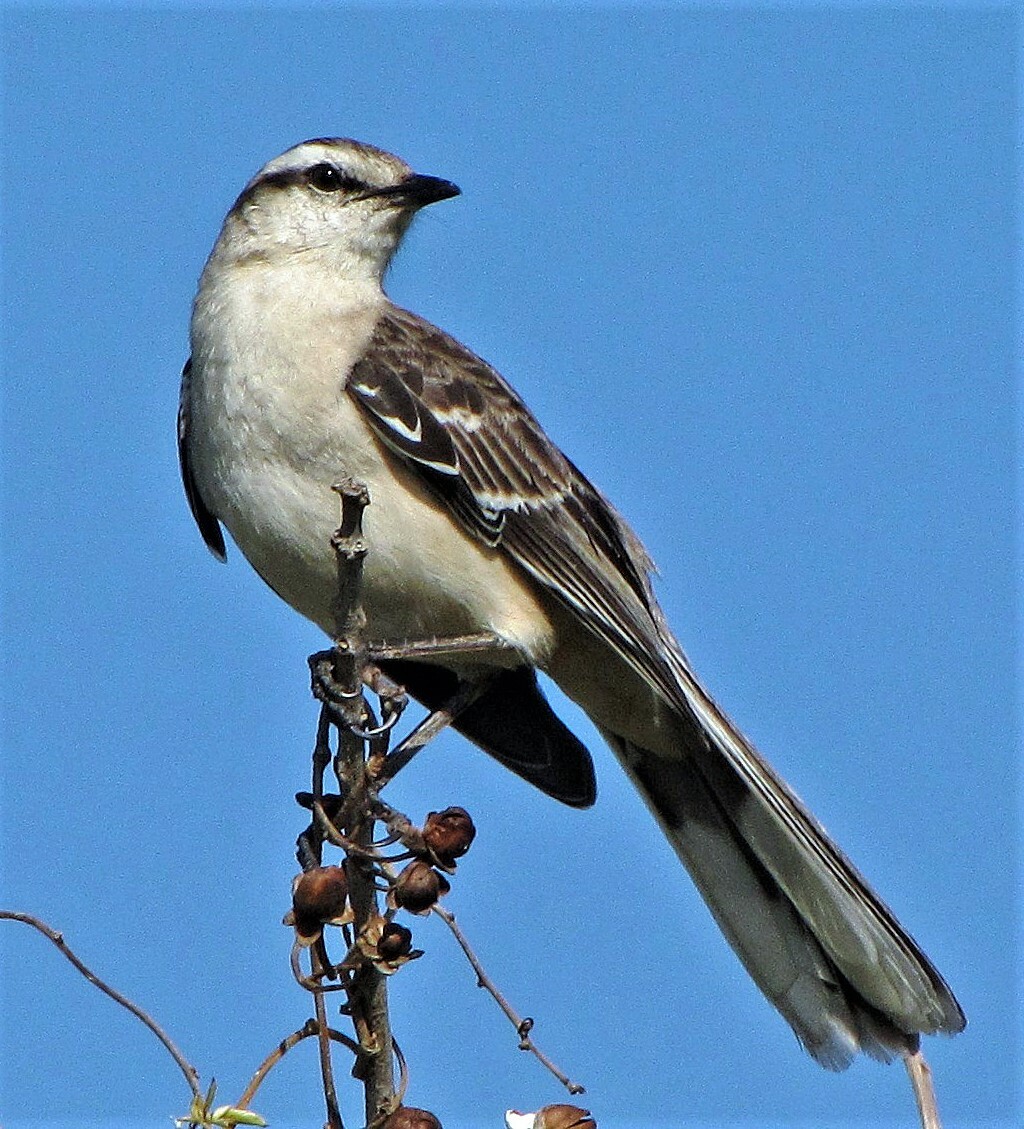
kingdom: Animalia
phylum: Chordata
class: Aves
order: Passeriformes
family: Mimidae
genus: Mimus
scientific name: Mimus saturninus
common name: Chalk-browed mockingbird
